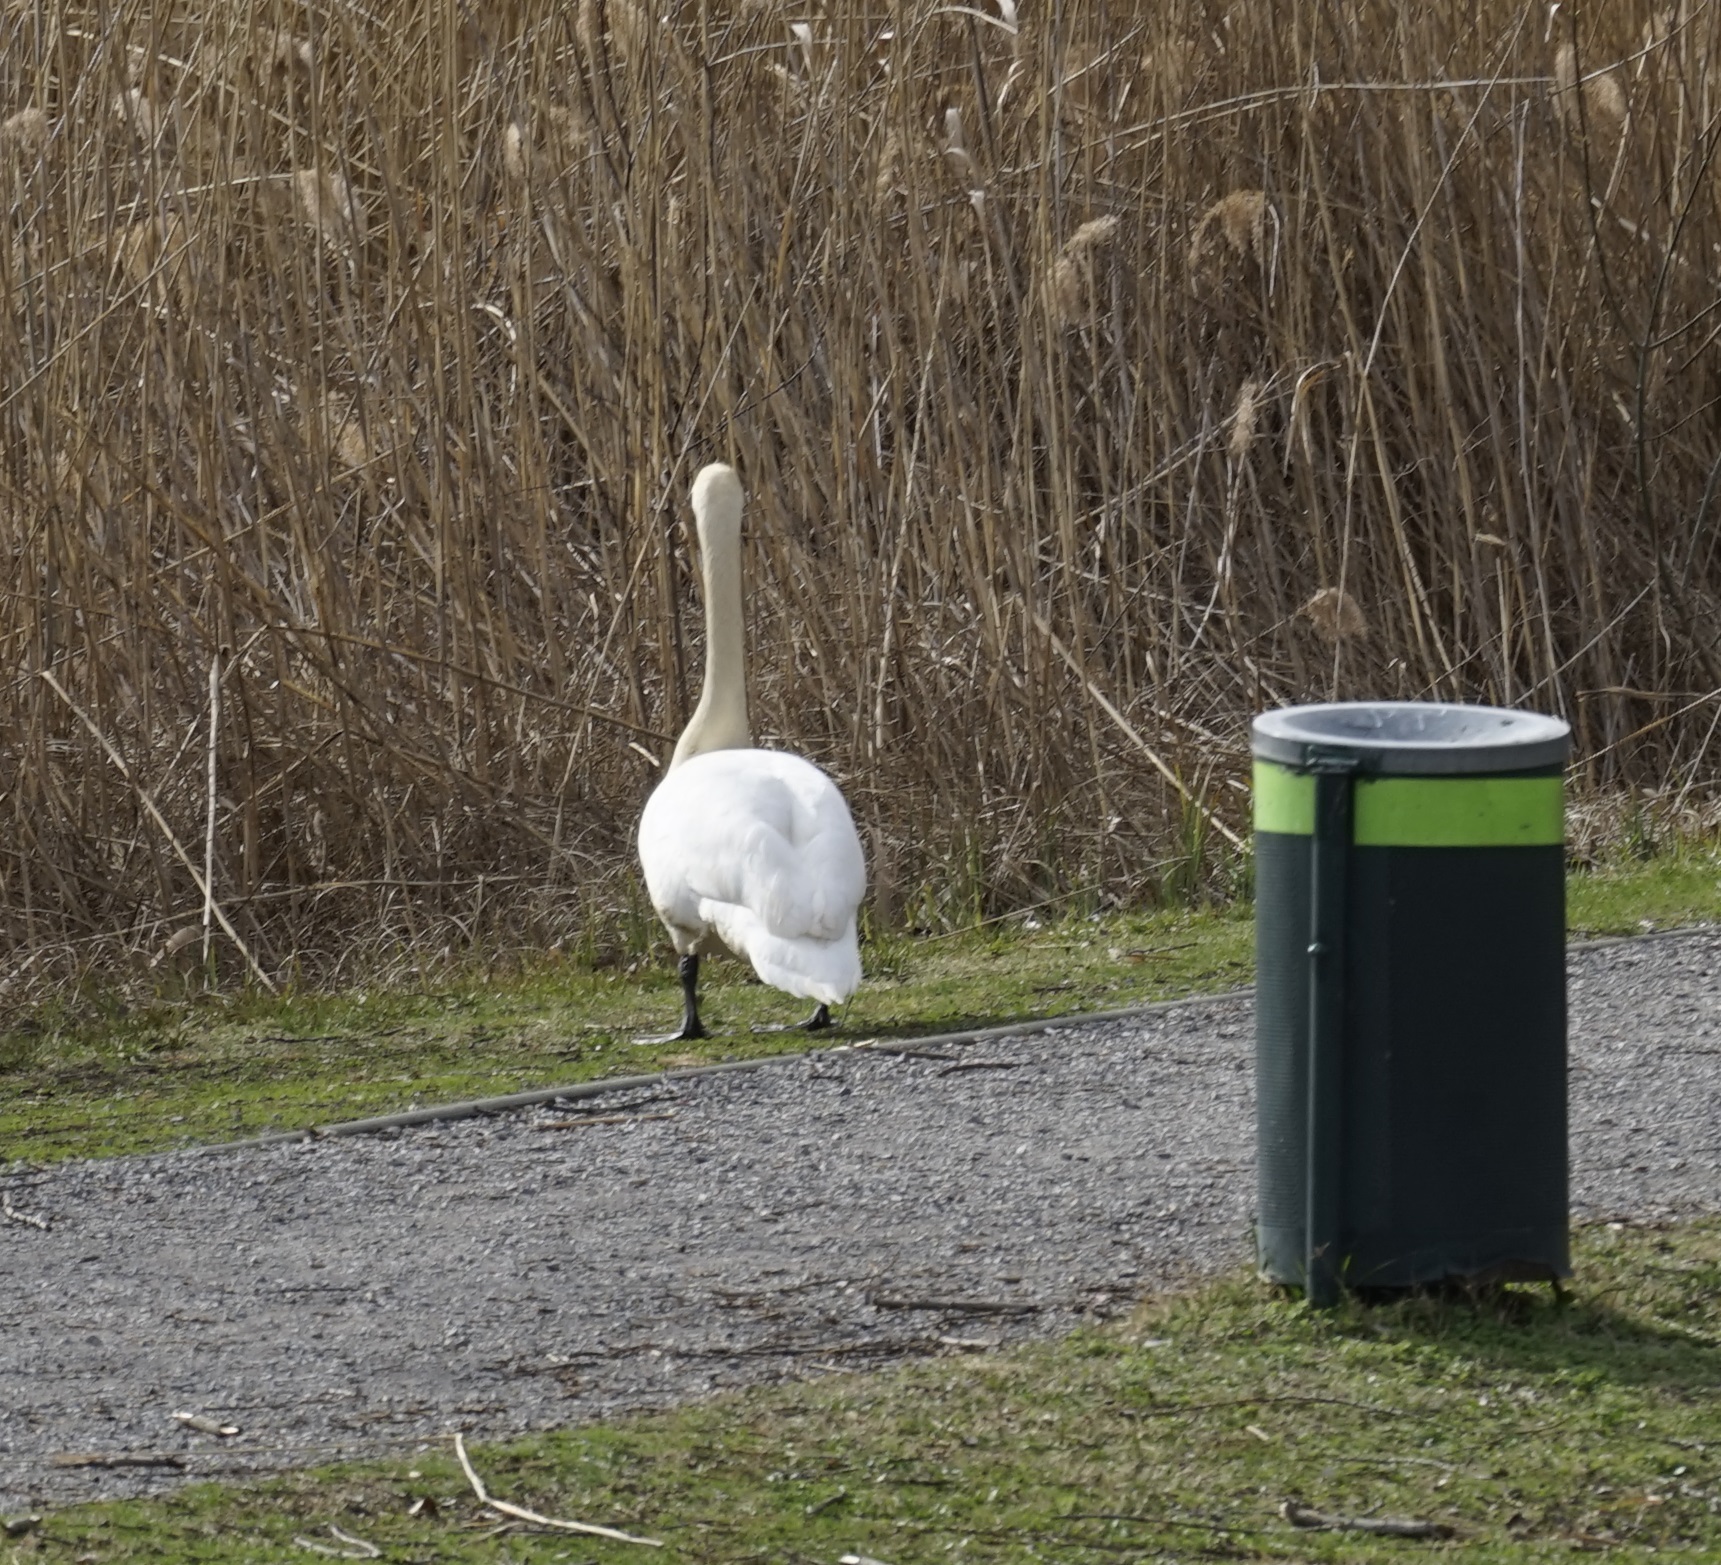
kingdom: Animalia
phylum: Chordata
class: Aves
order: Anseriformes
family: Anatidae
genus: Cygnus
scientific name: Cygnus olor
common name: Mute swan
